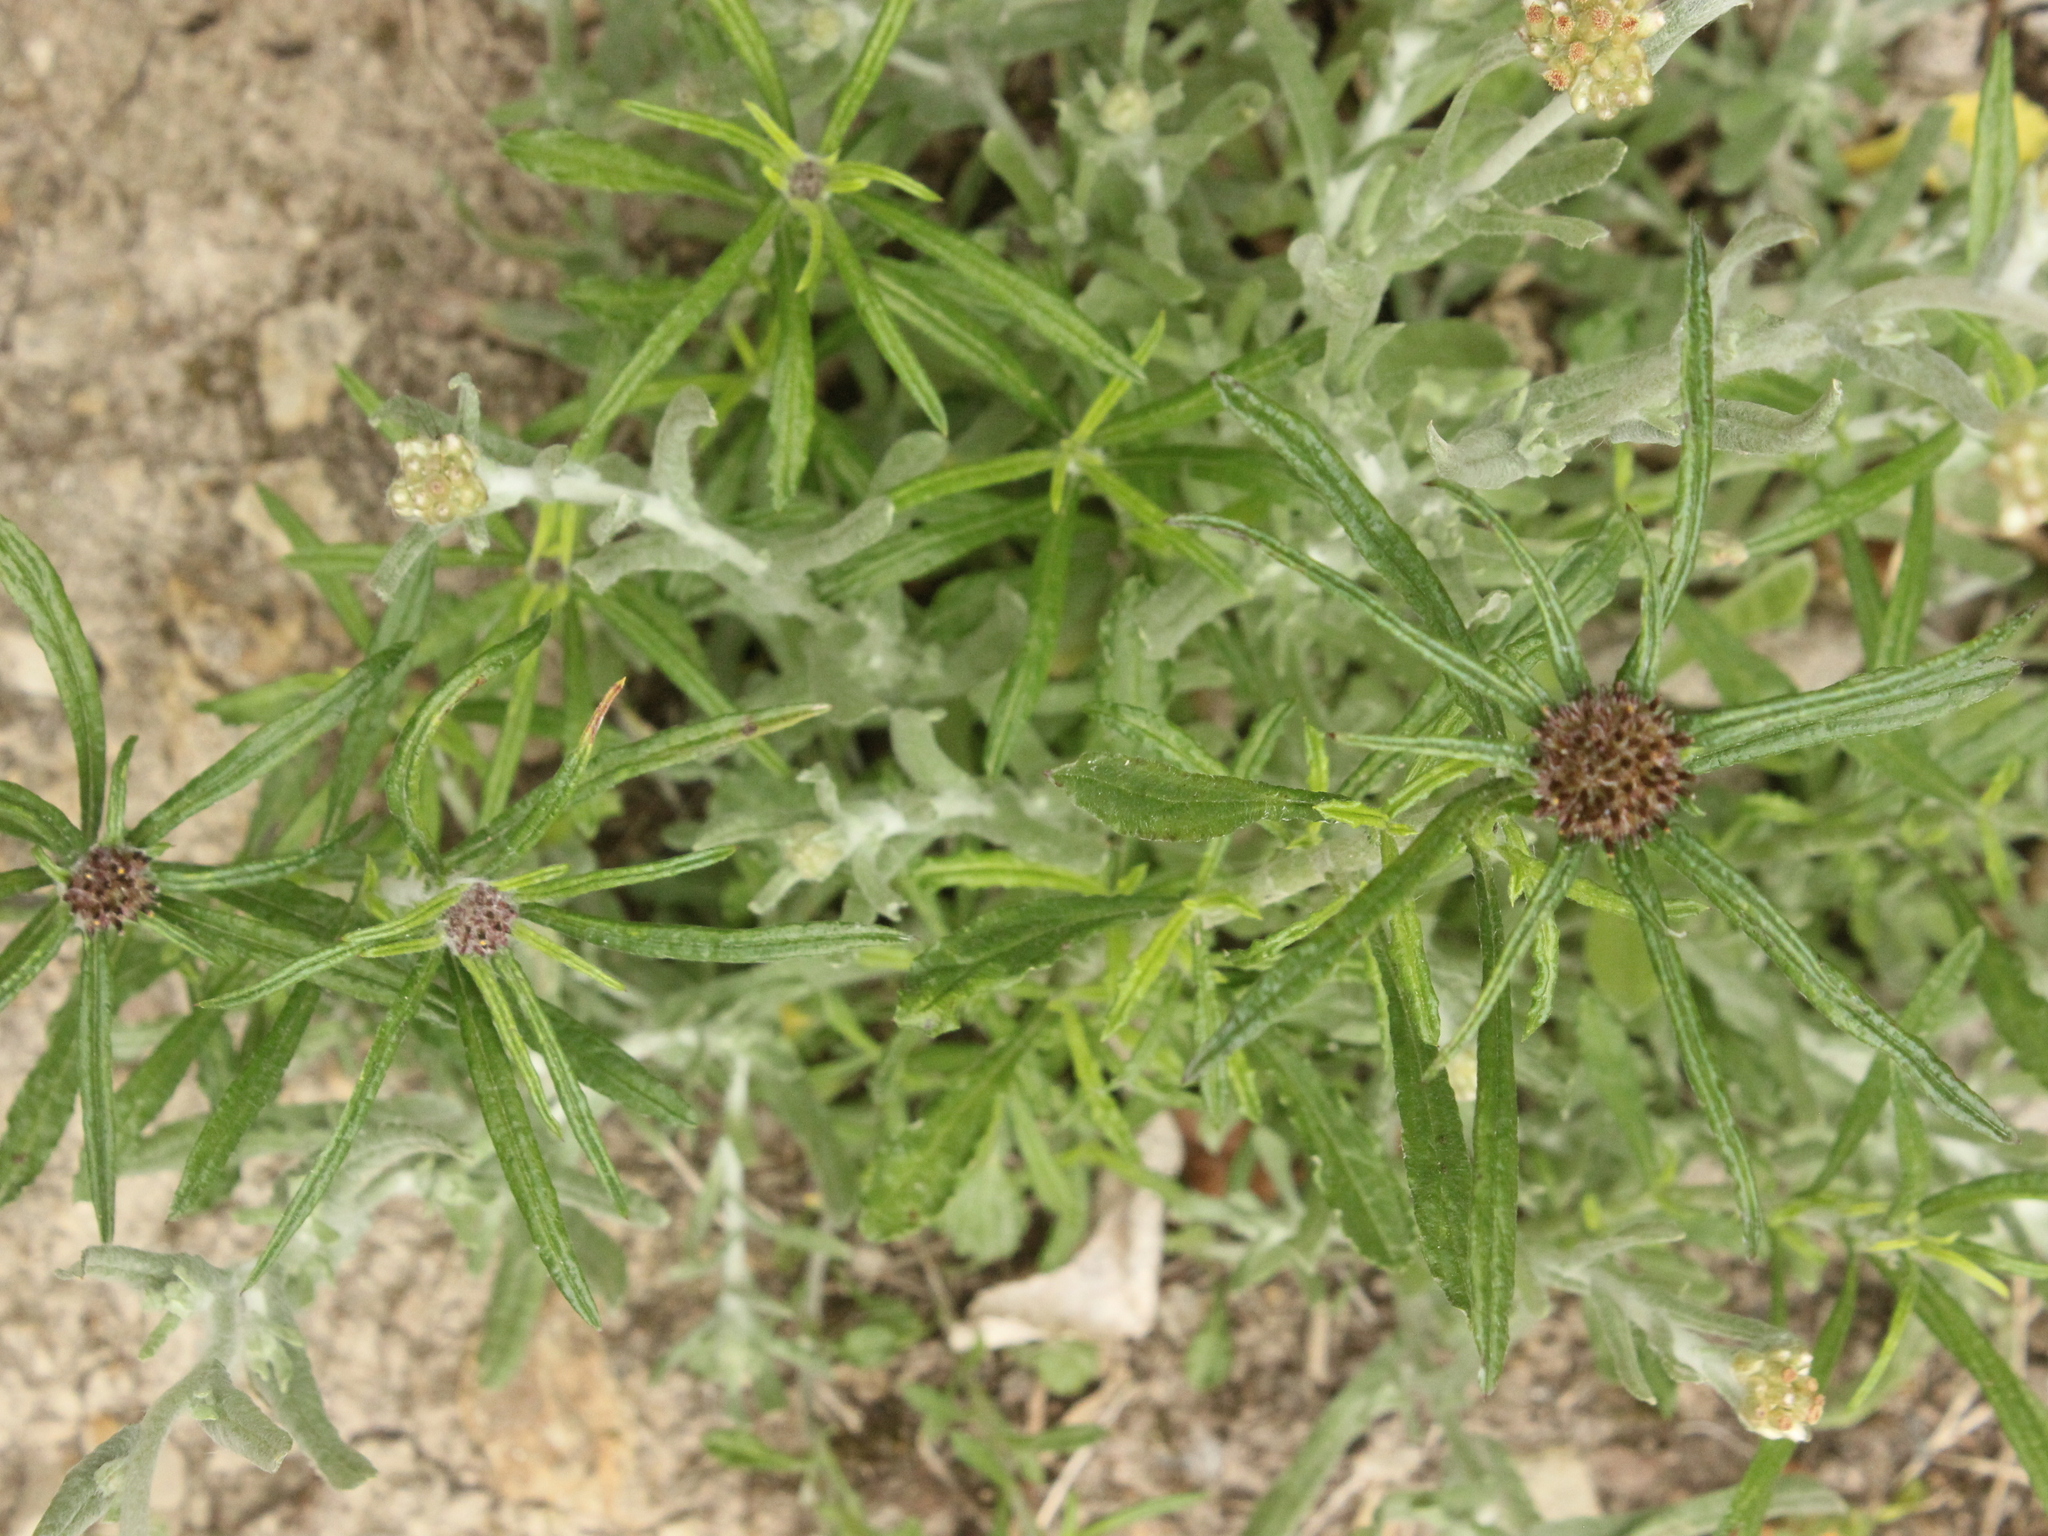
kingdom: Plantae
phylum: Tracheophyta
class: Magnoliopsida
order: Asterales
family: Asteraceae
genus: Euchiton
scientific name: Euchiton sphaericus
